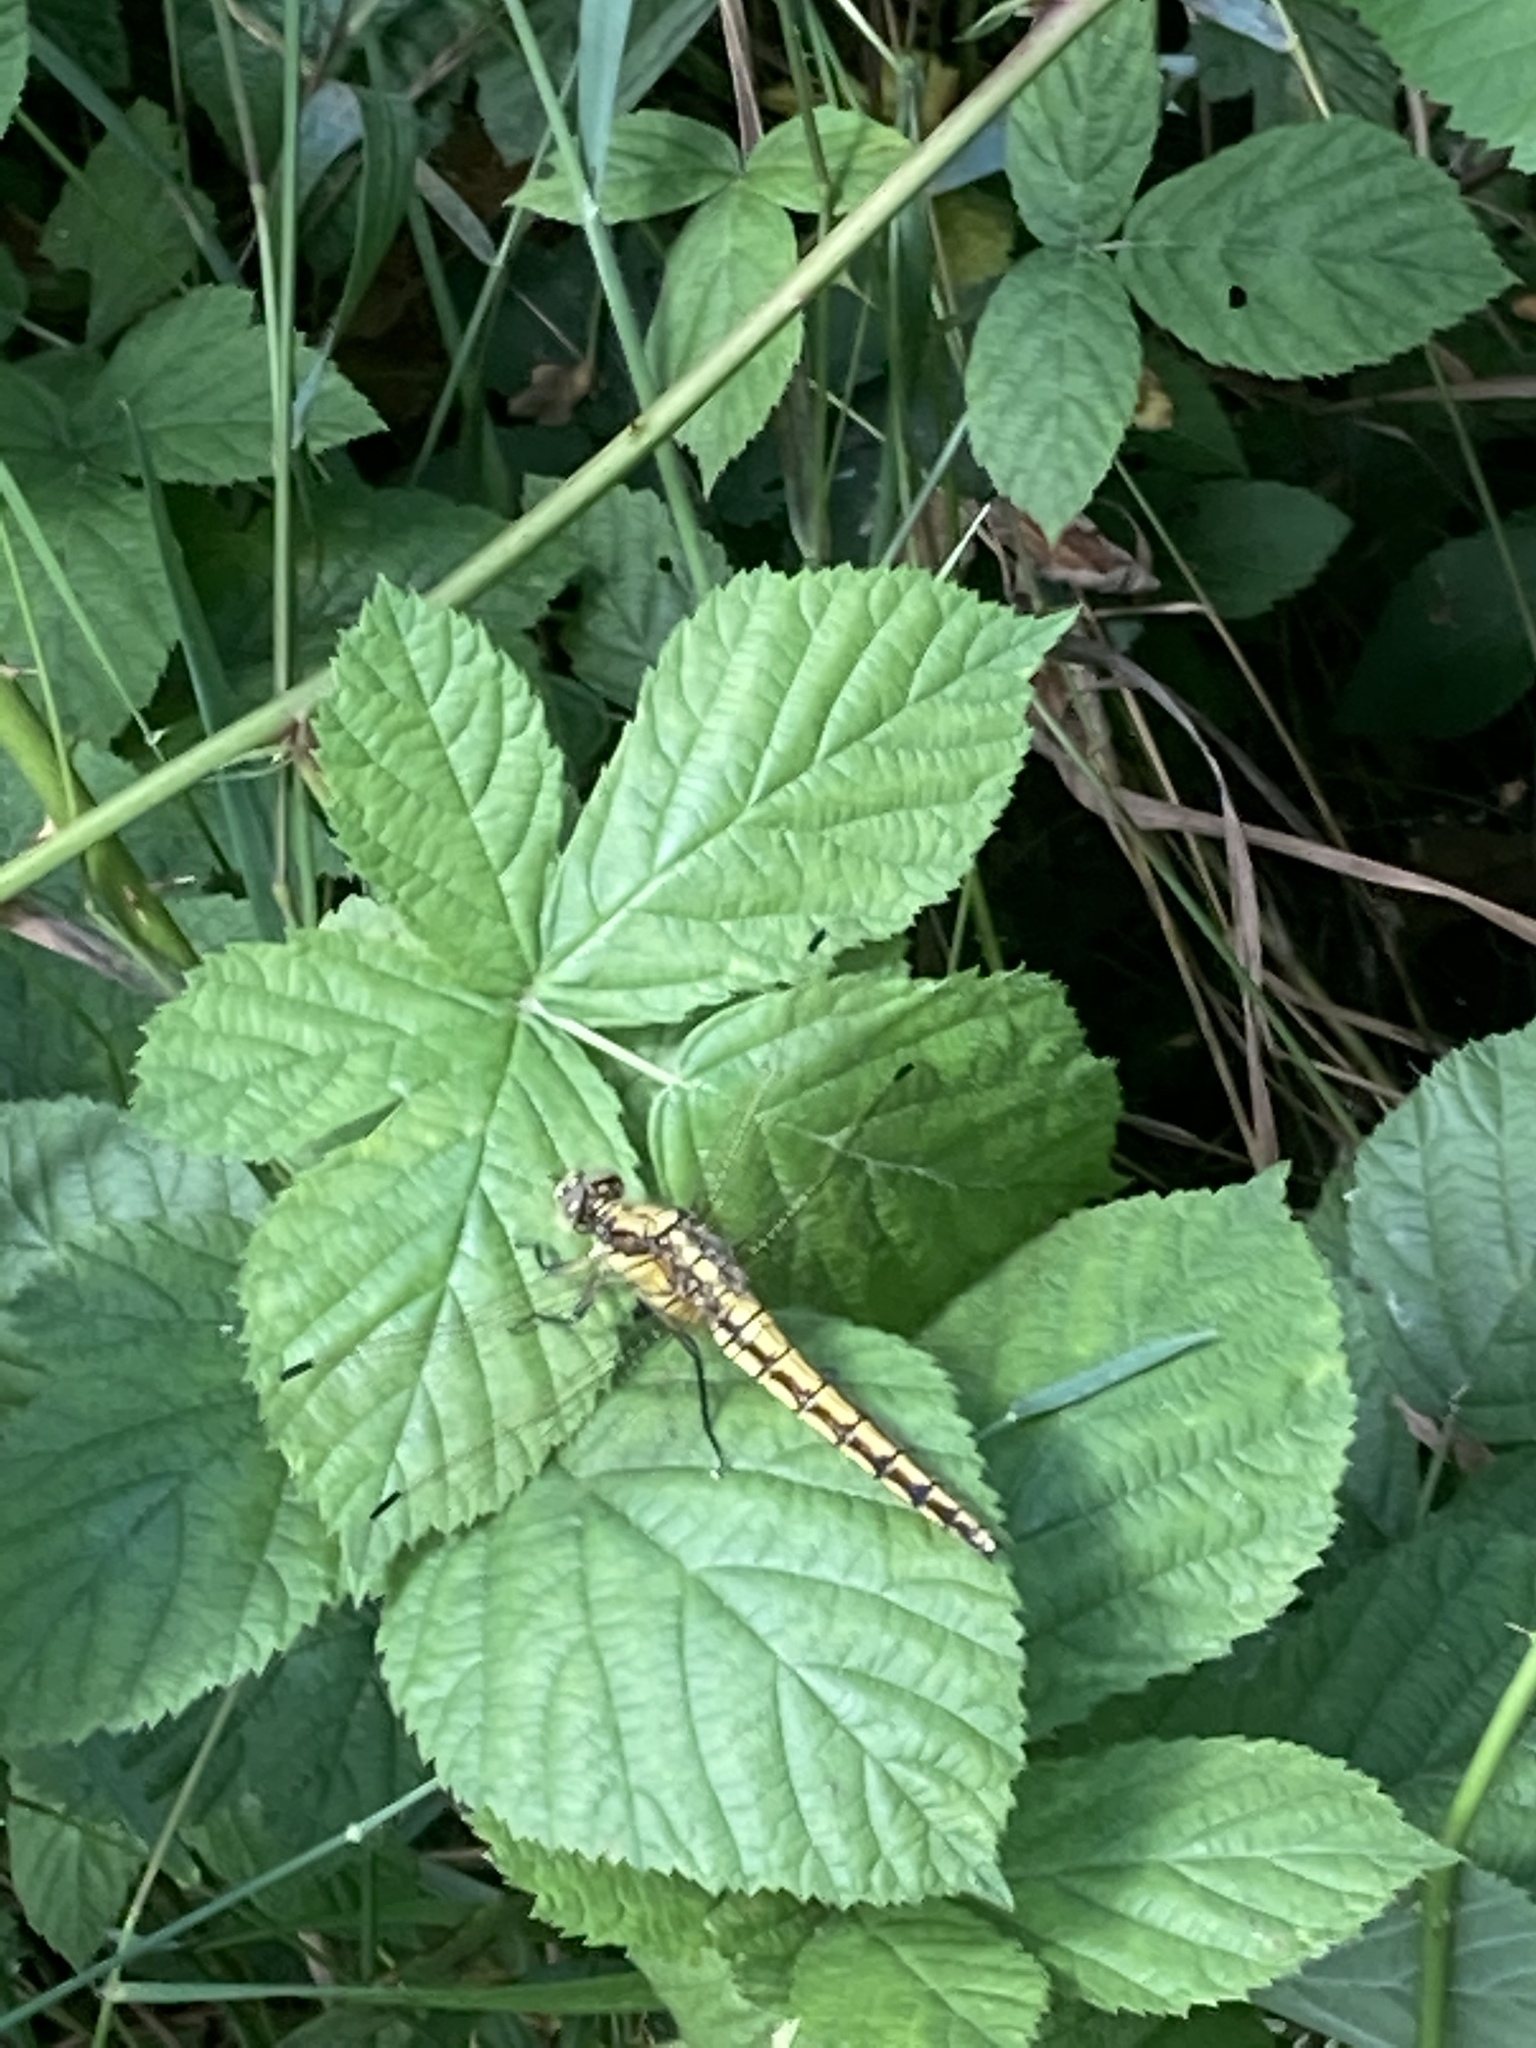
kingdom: Animalia
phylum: Arthropoda
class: Insecta
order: Odonata
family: Libellulidae
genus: Orthetrum
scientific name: Orthetrum cancellatum
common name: Black-tailed skimmer
